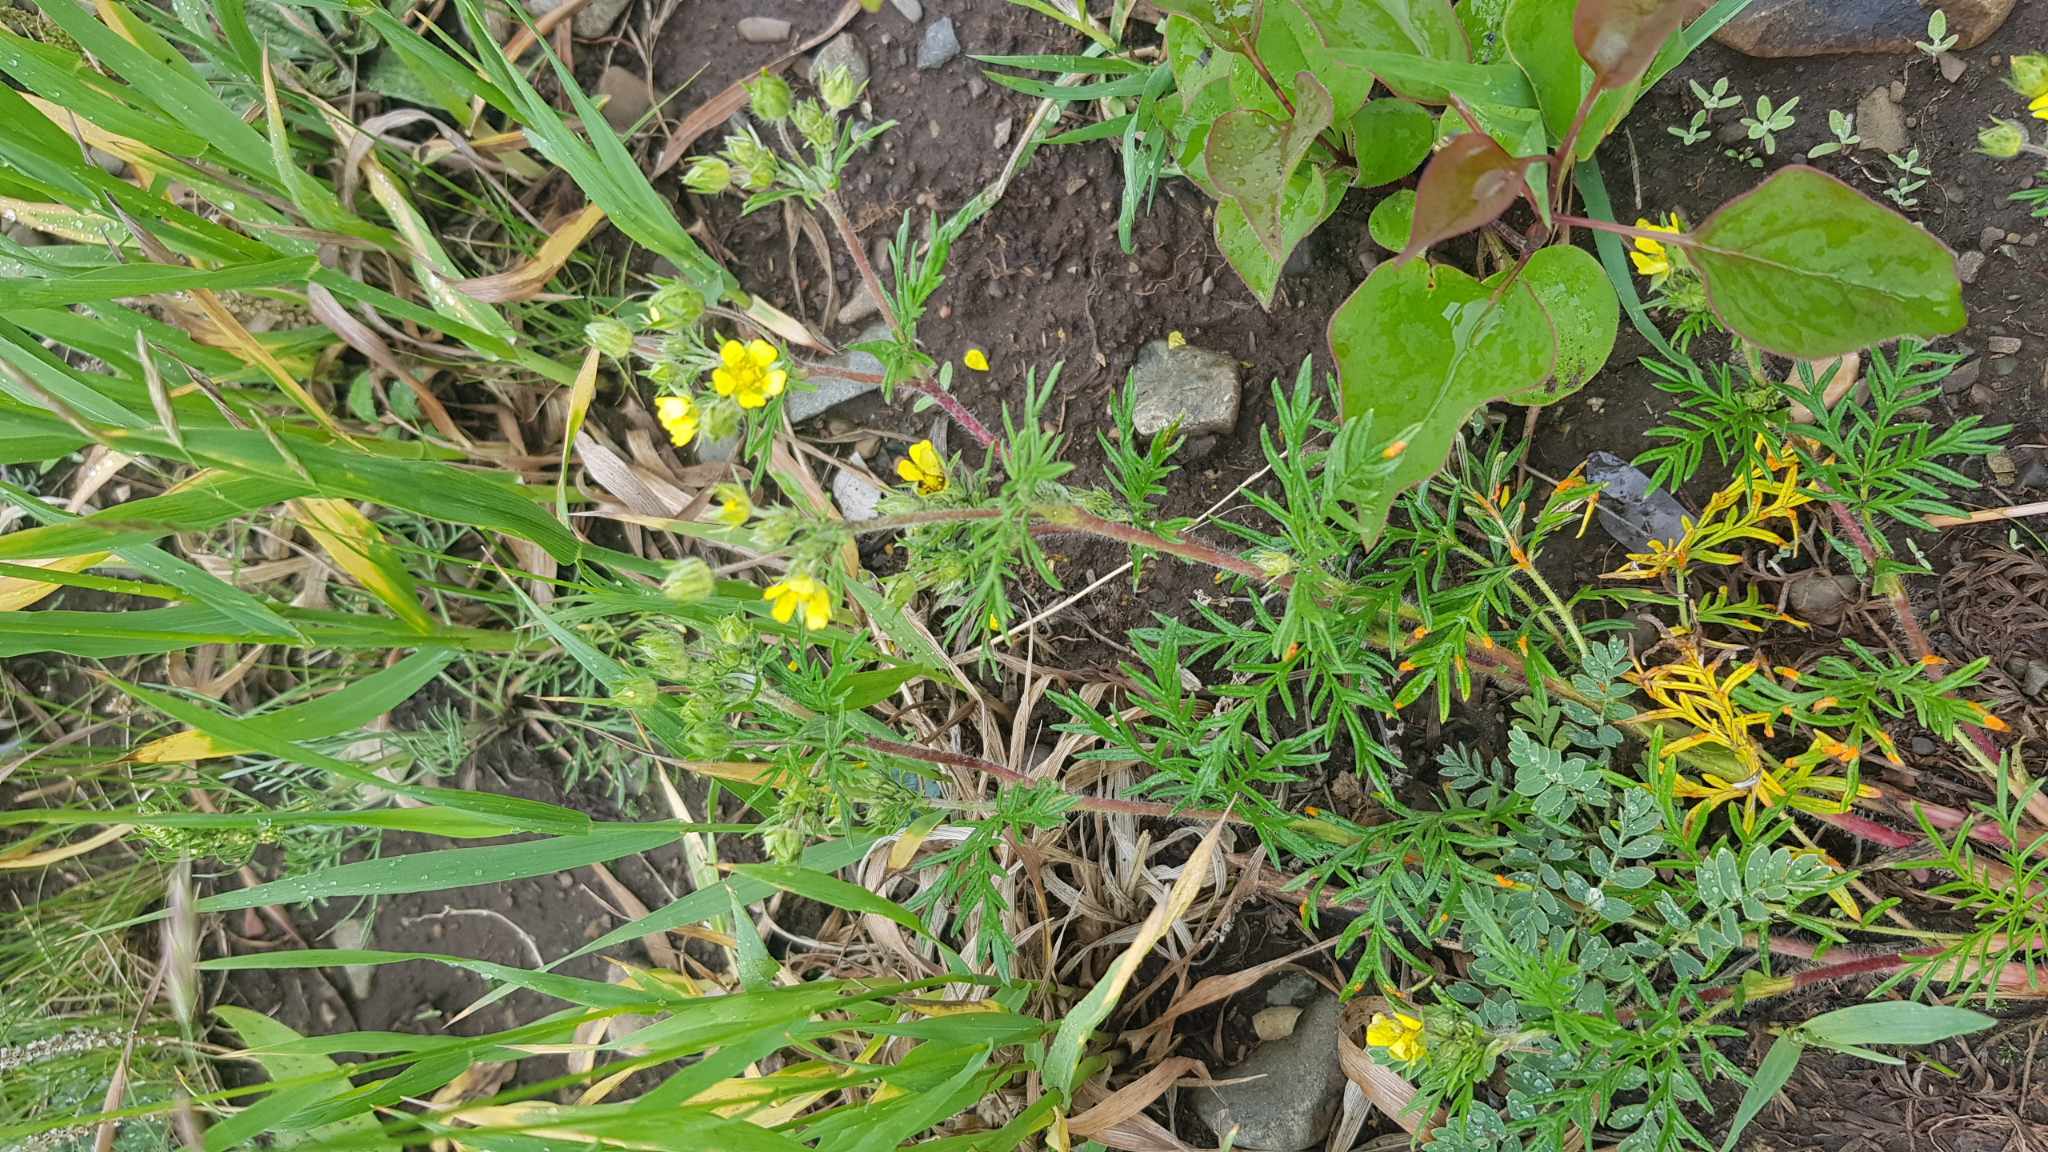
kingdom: Plantae
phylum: Tracheophyta
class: Magnoliopsida
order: Rosales
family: Rosaceae
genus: Potentilla
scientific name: Potentilla tergemina
